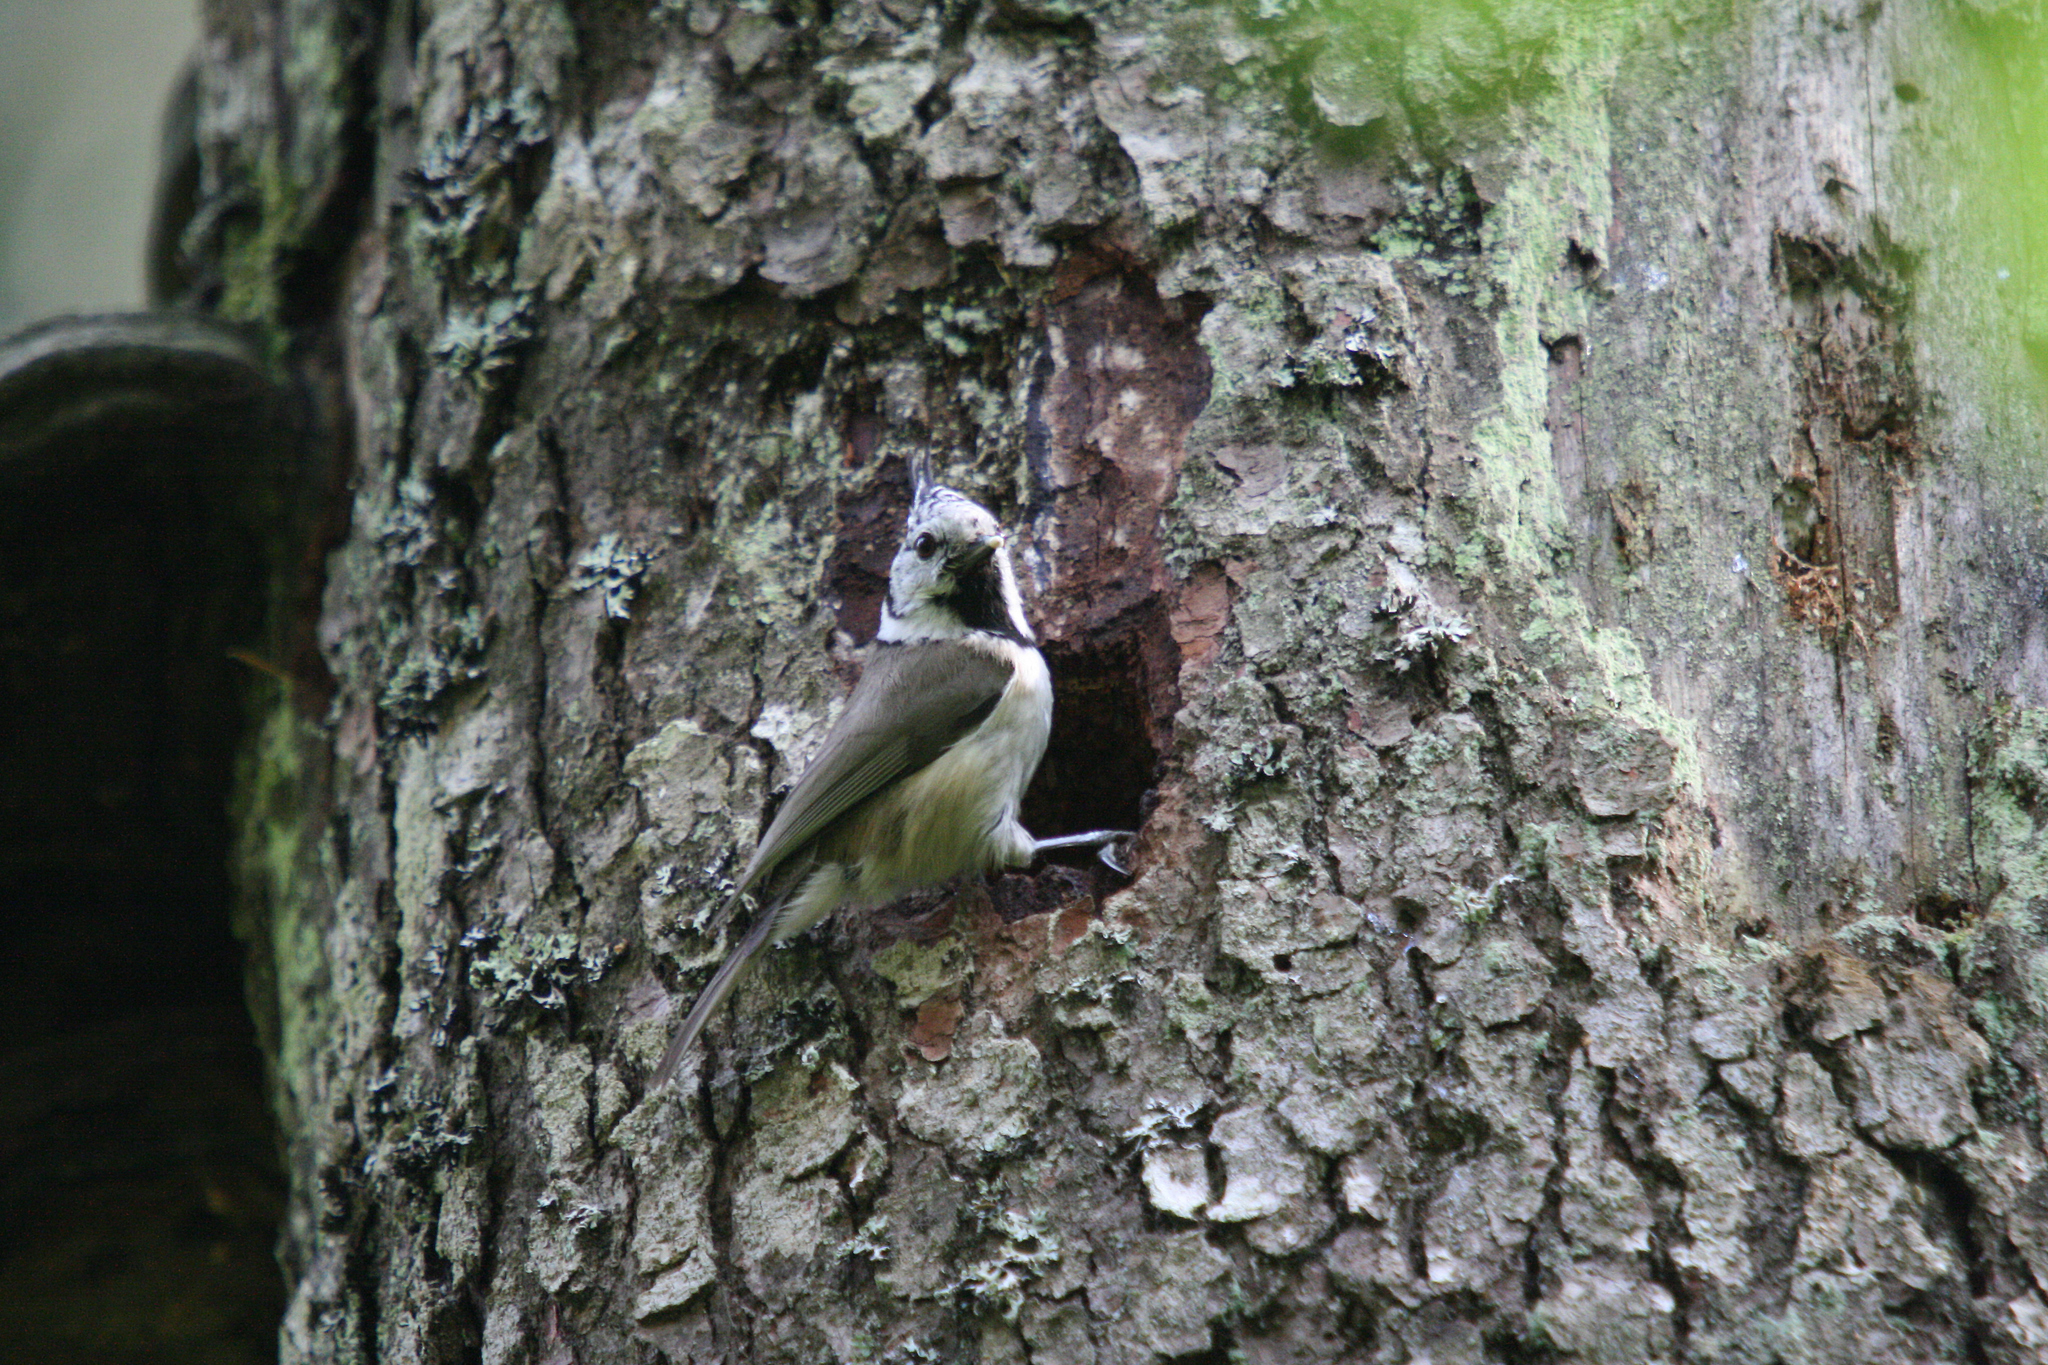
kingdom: Animalia
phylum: Chordata
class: Aves
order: Passeriformes
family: Paridae
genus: Lophophanes
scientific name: Lophophanes cristatus
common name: European crested tit
